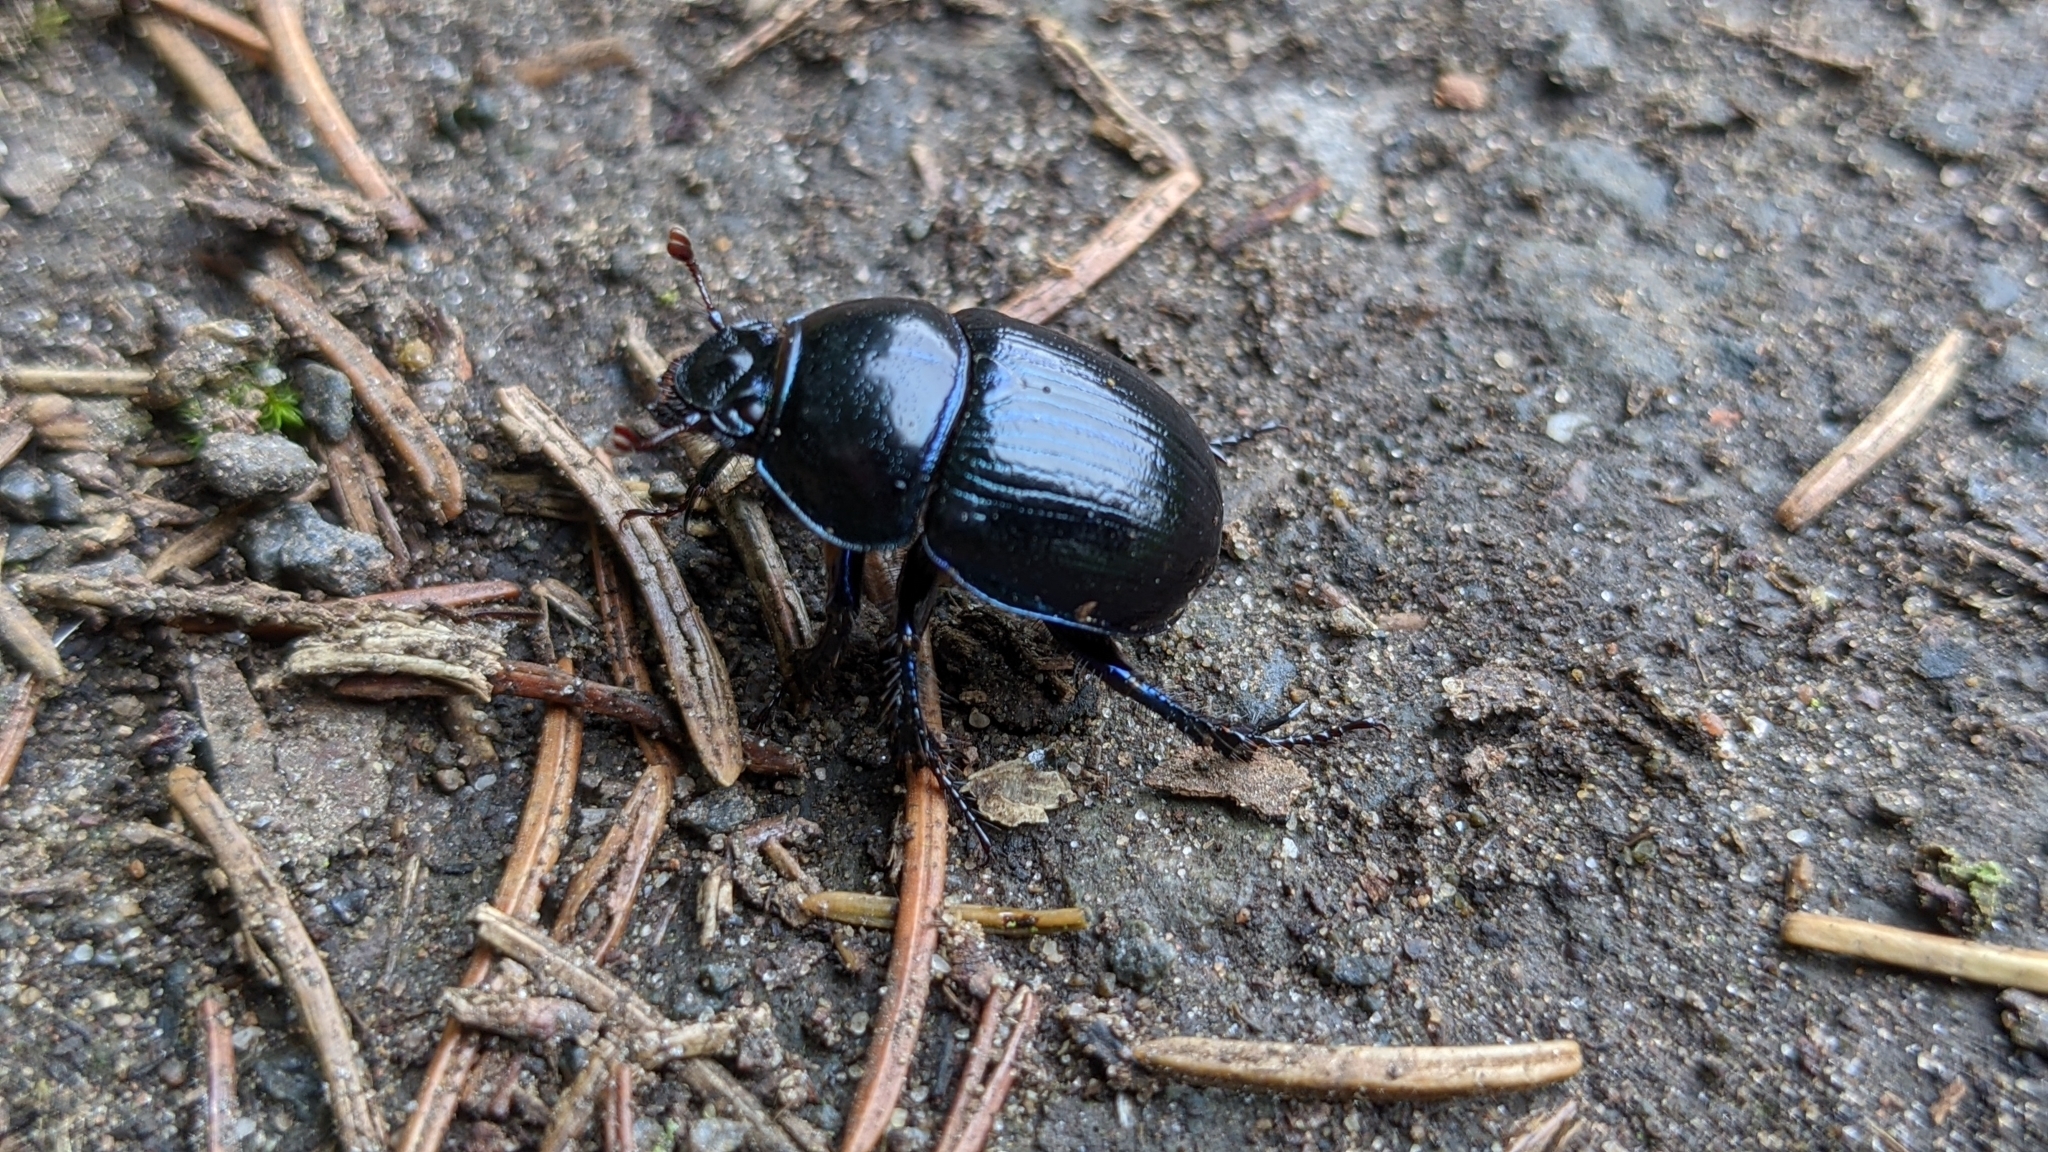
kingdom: Animalia
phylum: Arthropoda
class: Insecta
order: Coleoptera
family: Geotrupidae
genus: Anoplotrupes
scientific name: Anoplotrupes stercorosus
